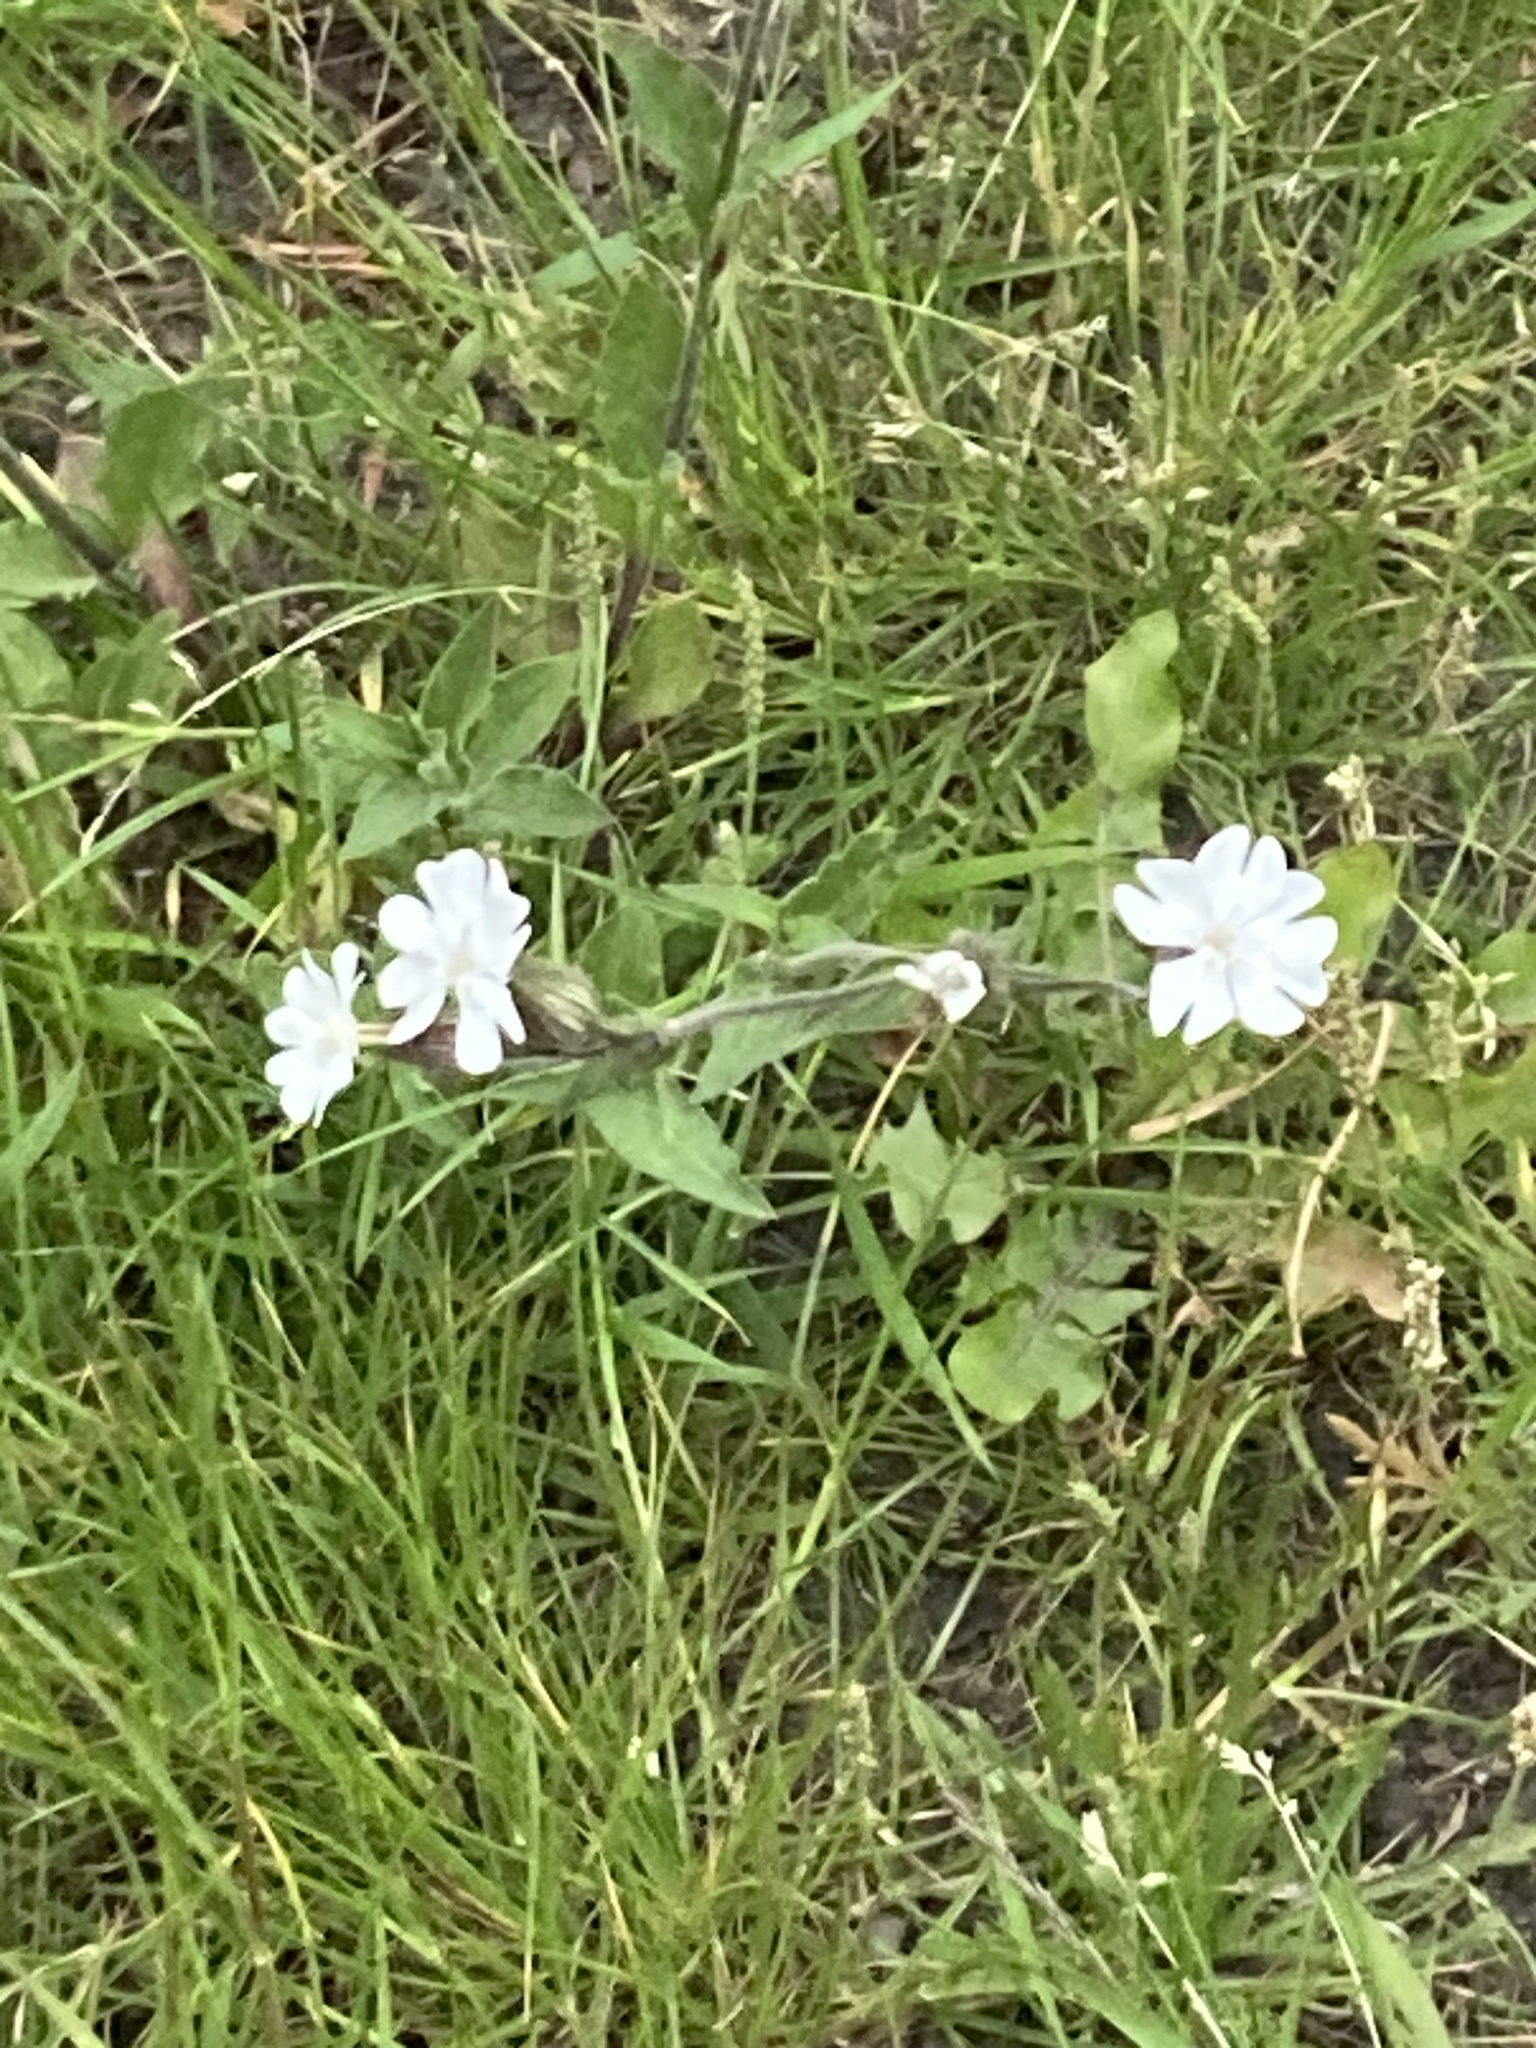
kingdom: Plantae
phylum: Tracheophyta
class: Magnoliopsida
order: Caryophyllales
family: Caryophyllaceae
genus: Silene
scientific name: Silene latifolia
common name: White campion
